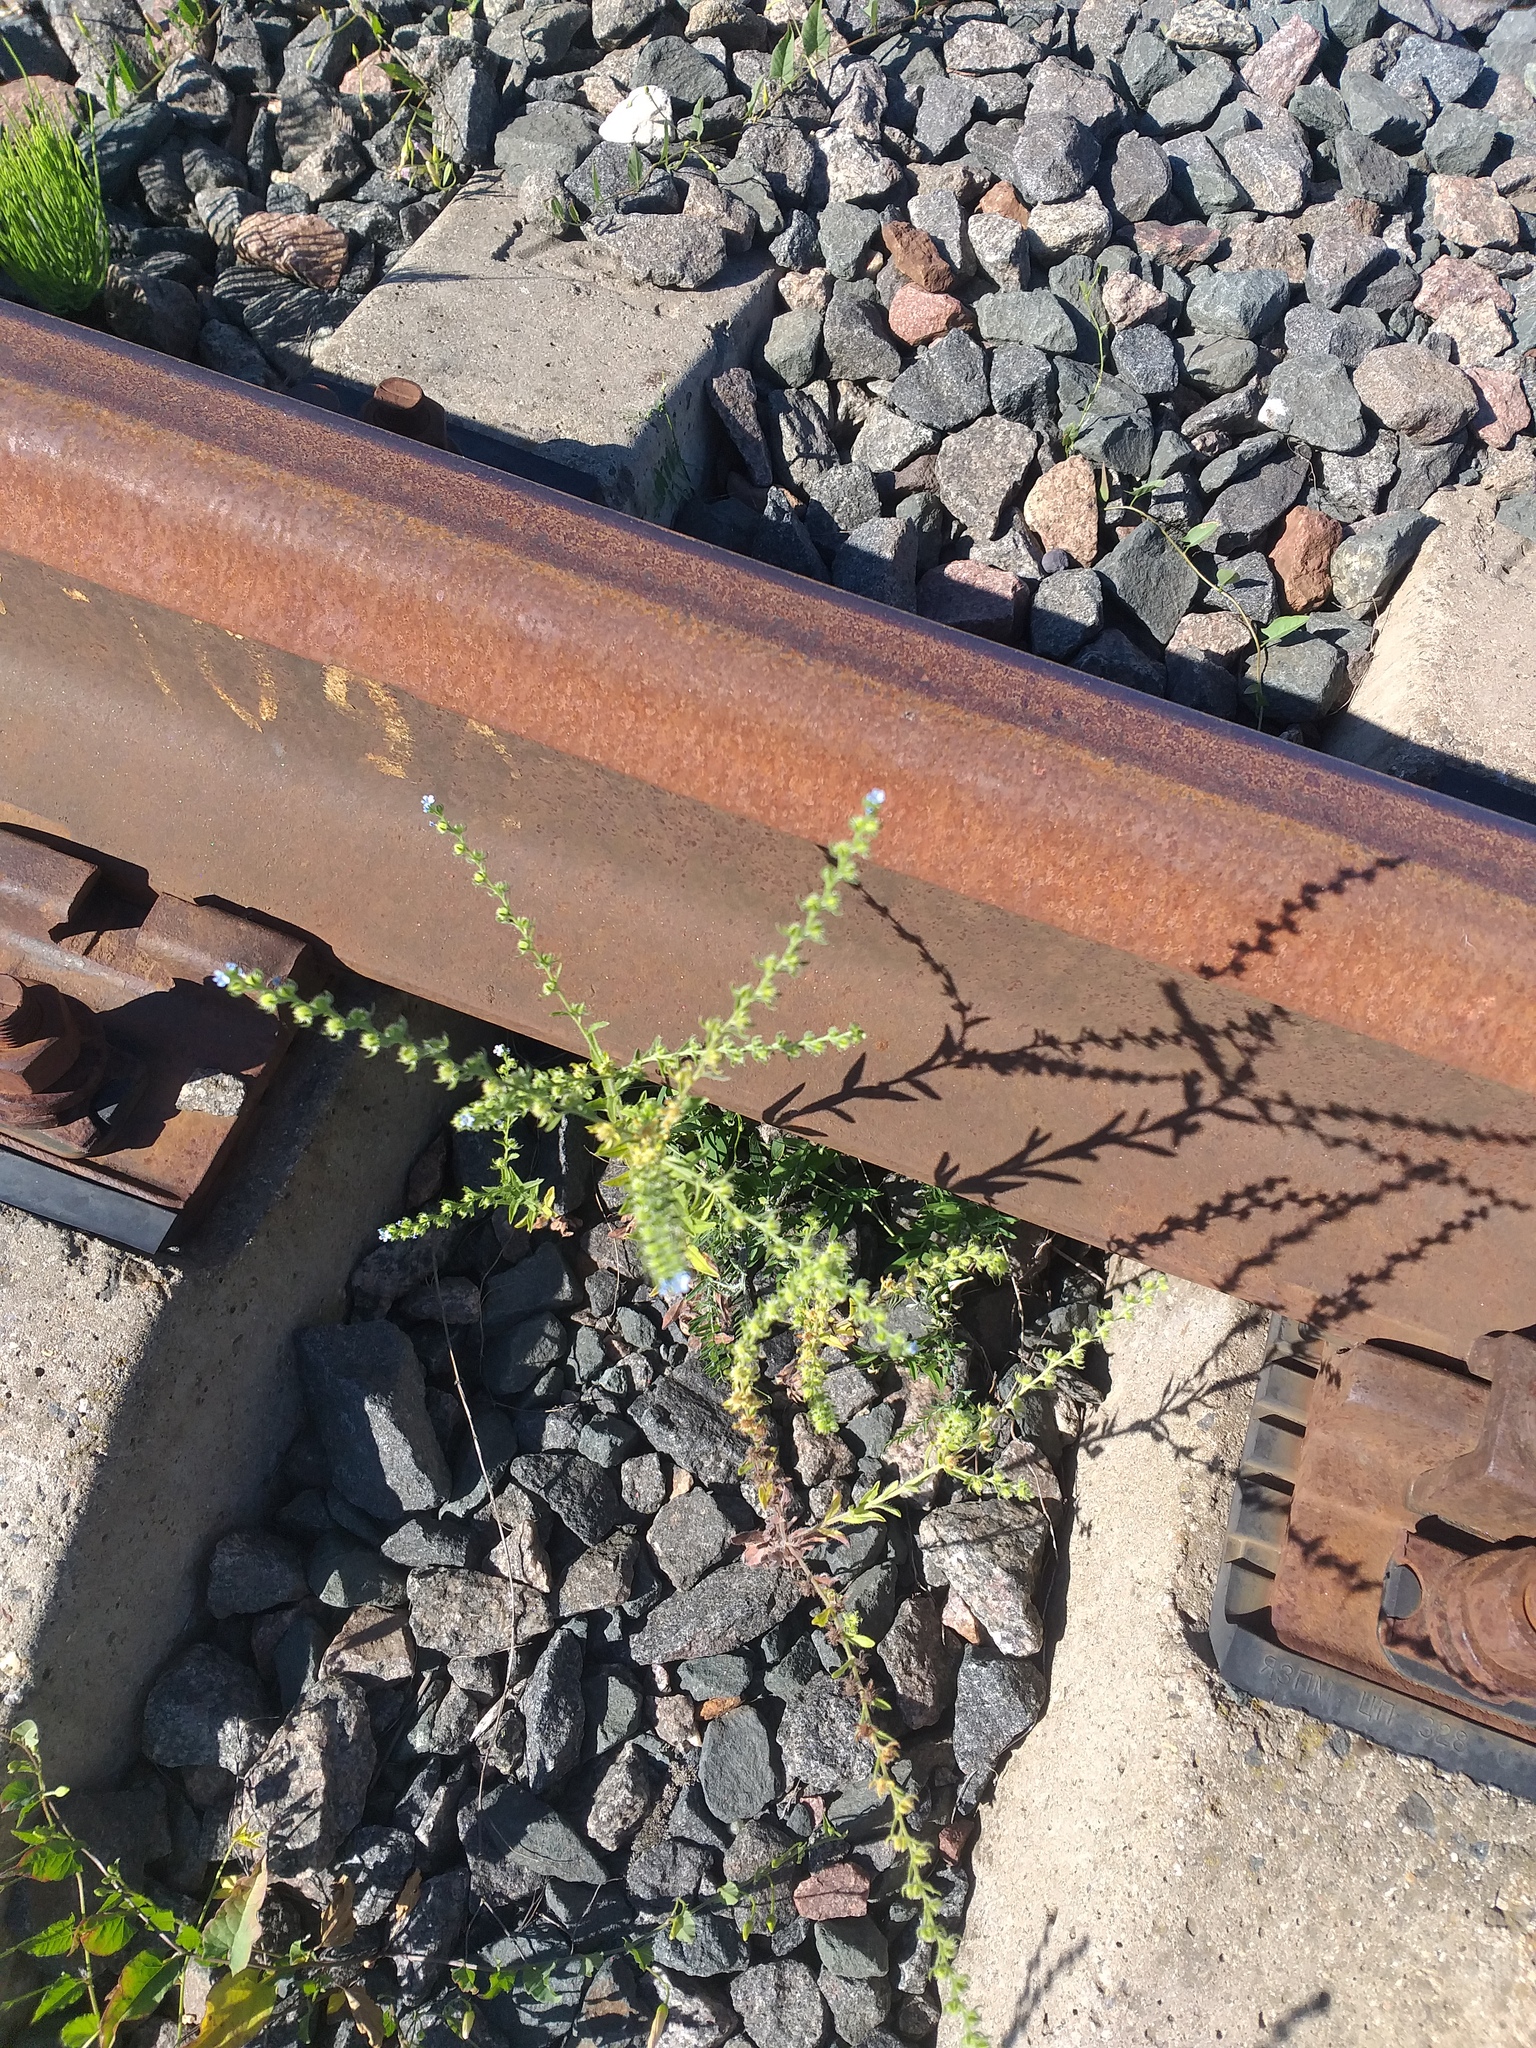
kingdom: Plantae
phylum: Tracheophyta
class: Magnoliopsida
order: Boraginales
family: Boraginaceae
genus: Lappula
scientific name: Lappula squarrosa
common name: European stickseed
